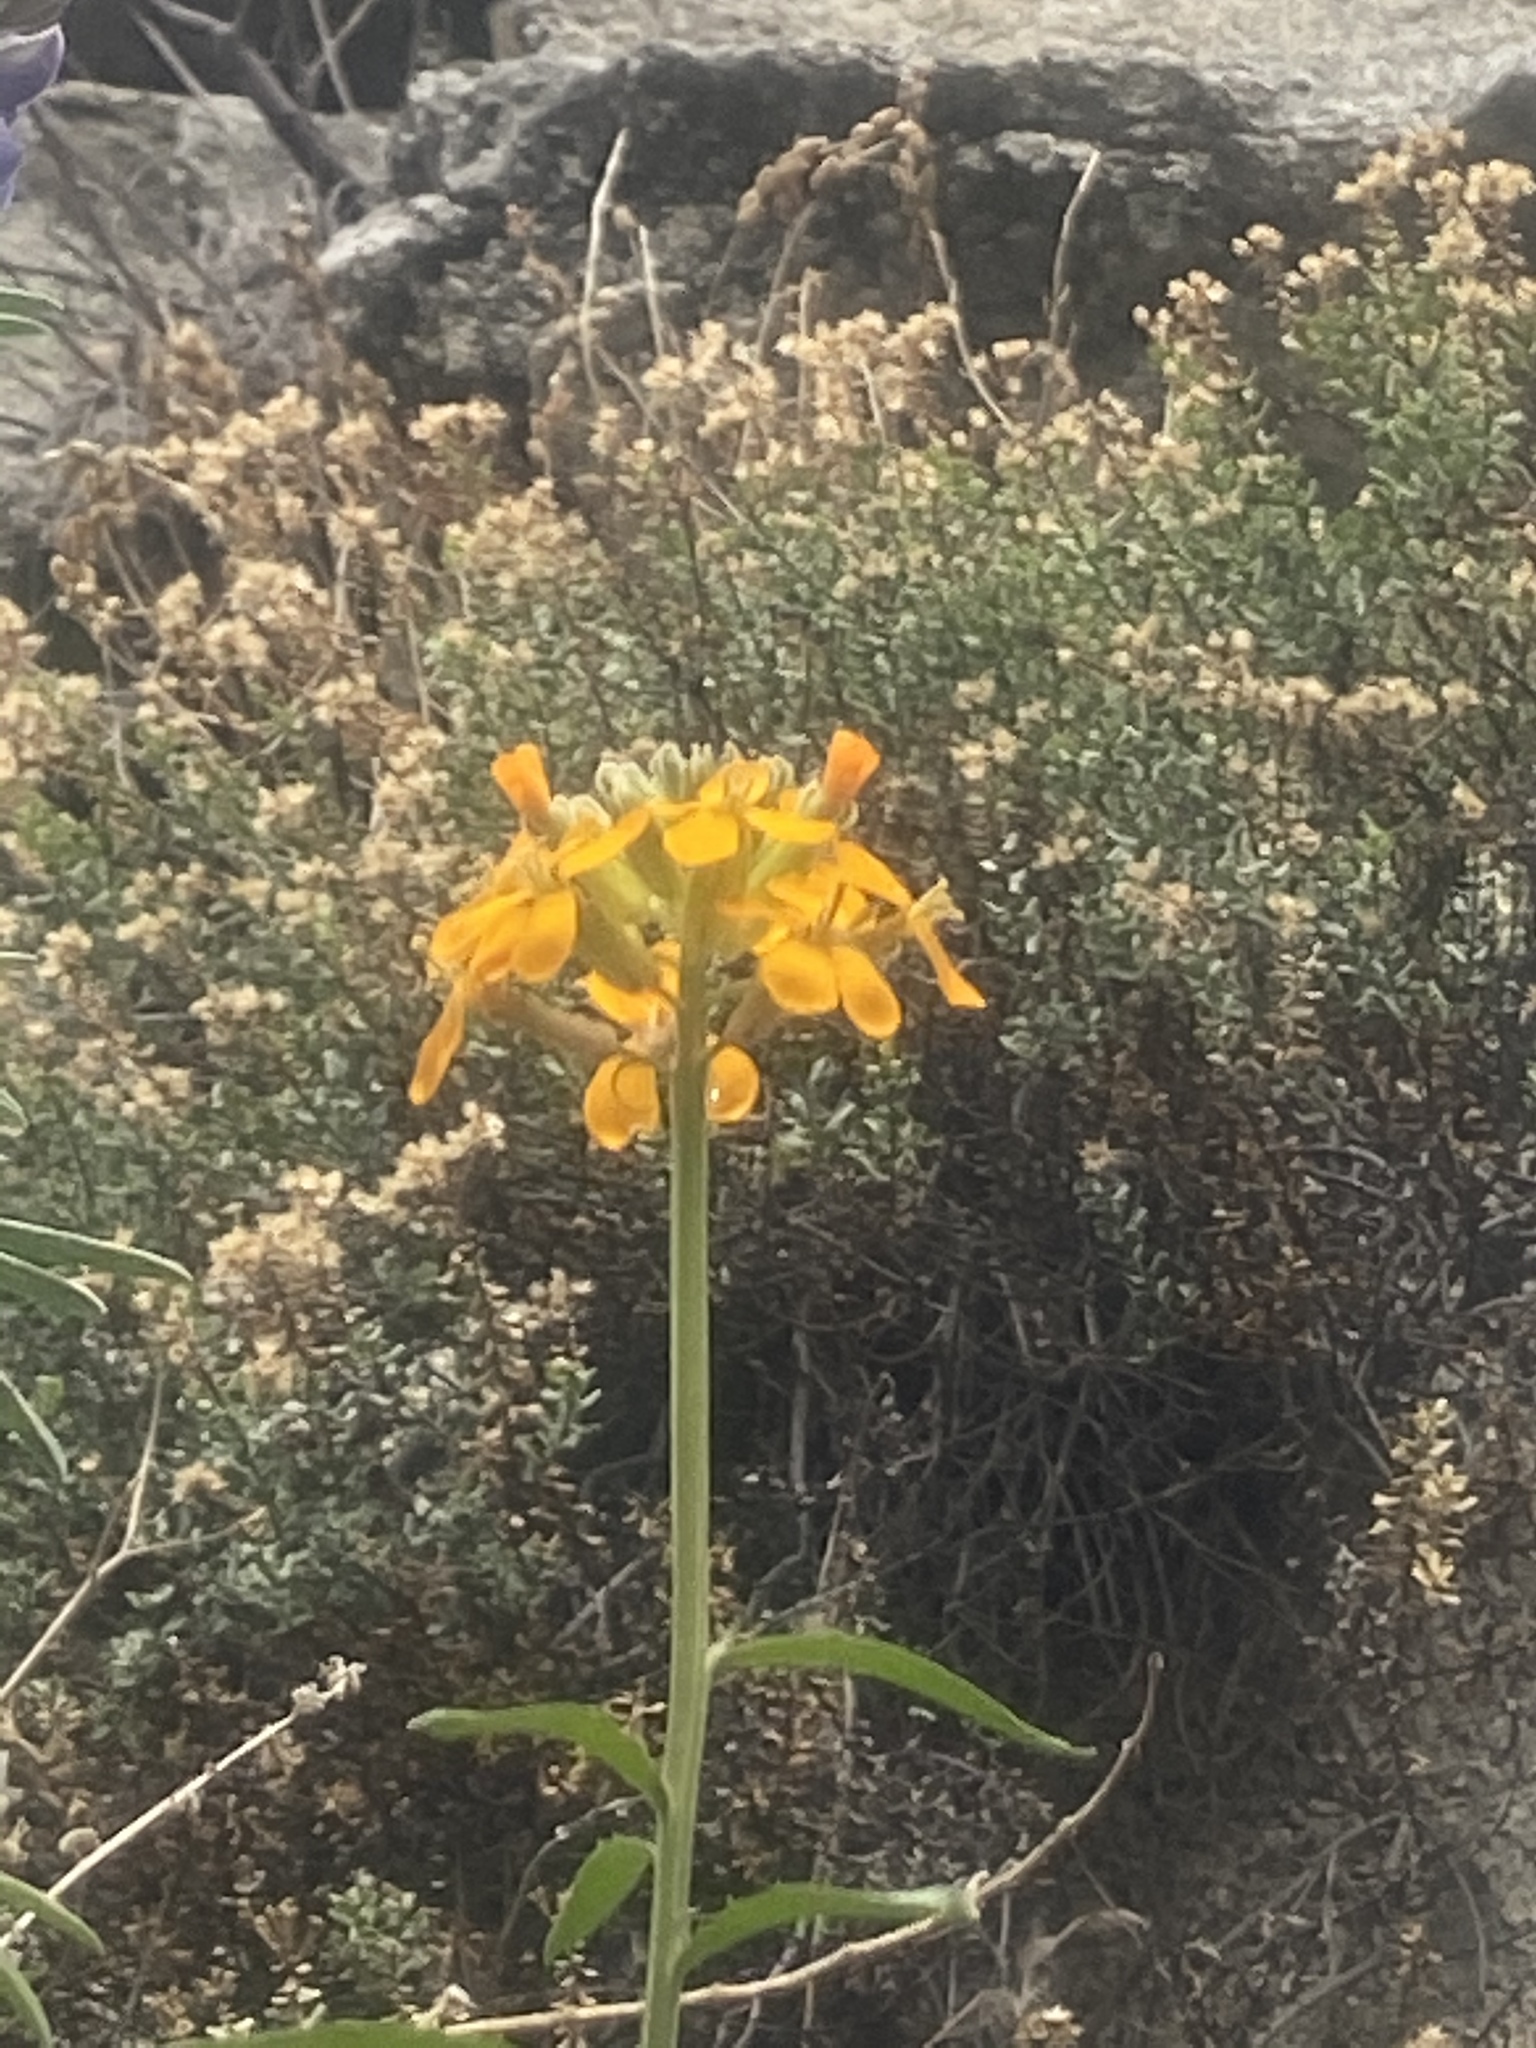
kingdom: Plantae
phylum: Tracheophyta
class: Magnoliopsida
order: Brassicales
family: Brassicaceae
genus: Erysimum
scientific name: Erysimum capitatum
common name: Western wallflower
